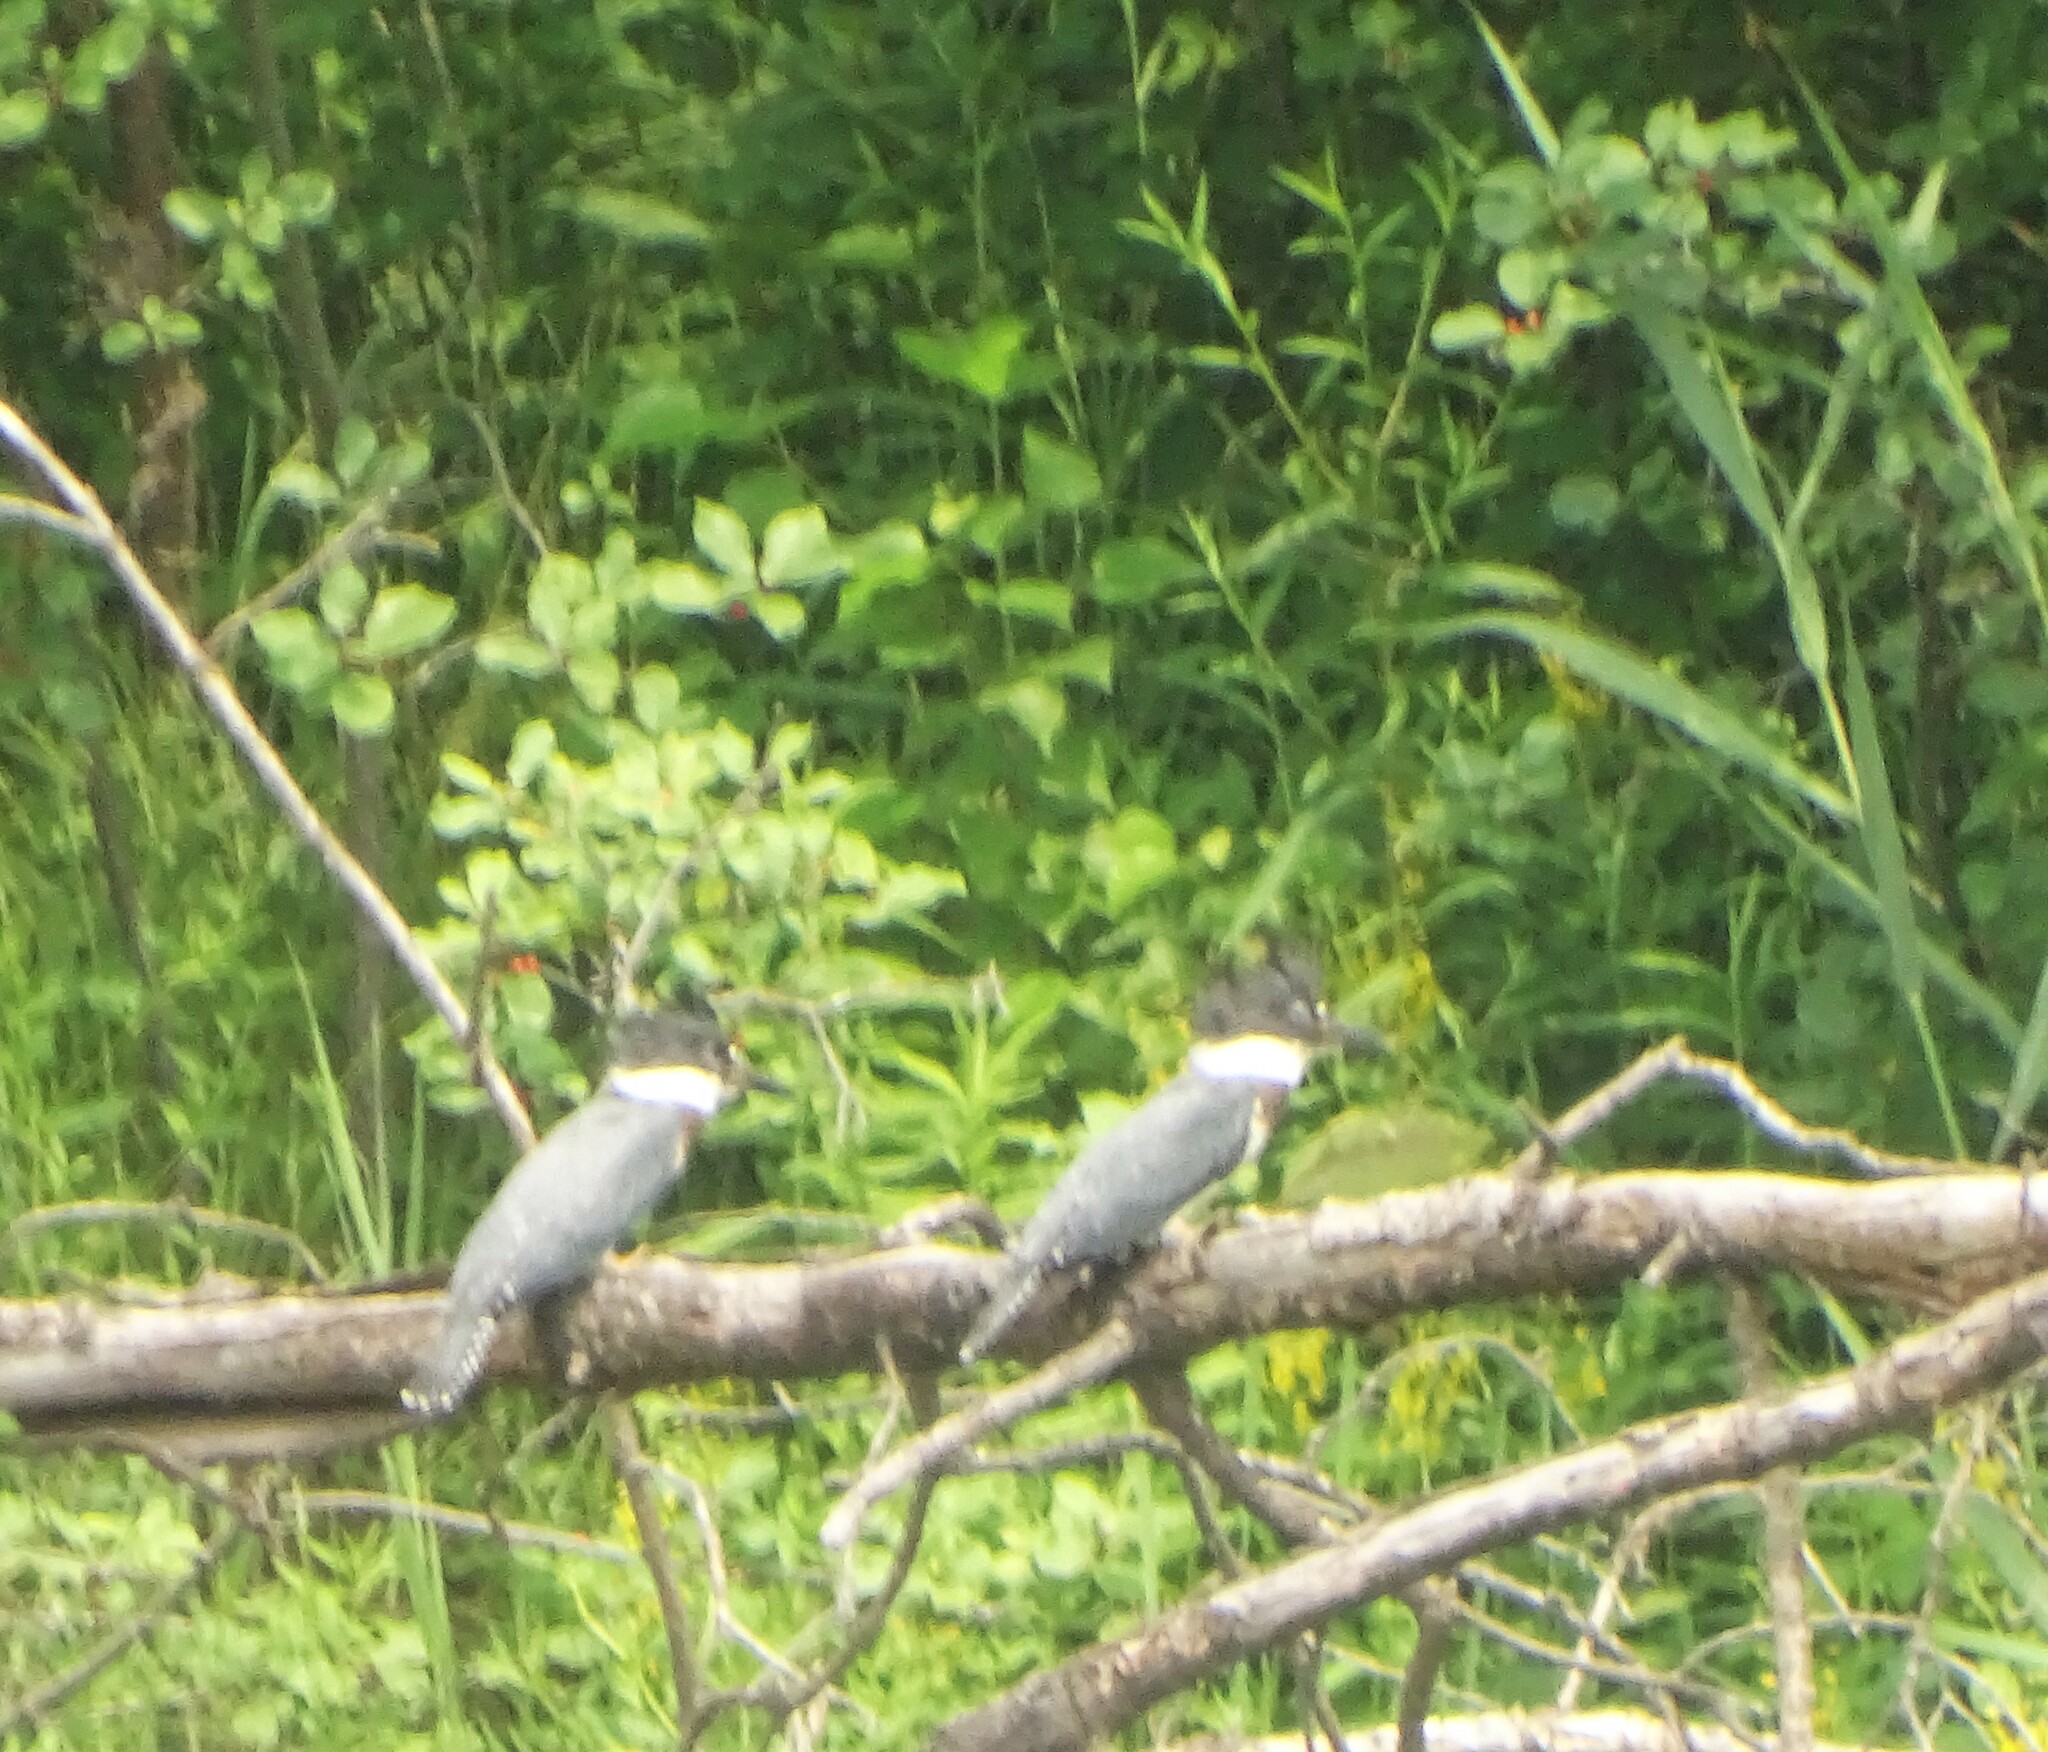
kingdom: Animalia
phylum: Chordata
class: Aves
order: Coraciiformes
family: Alcedinidae
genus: Megaceryle
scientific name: Megaceryle alcyon
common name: Belted kingfisher
